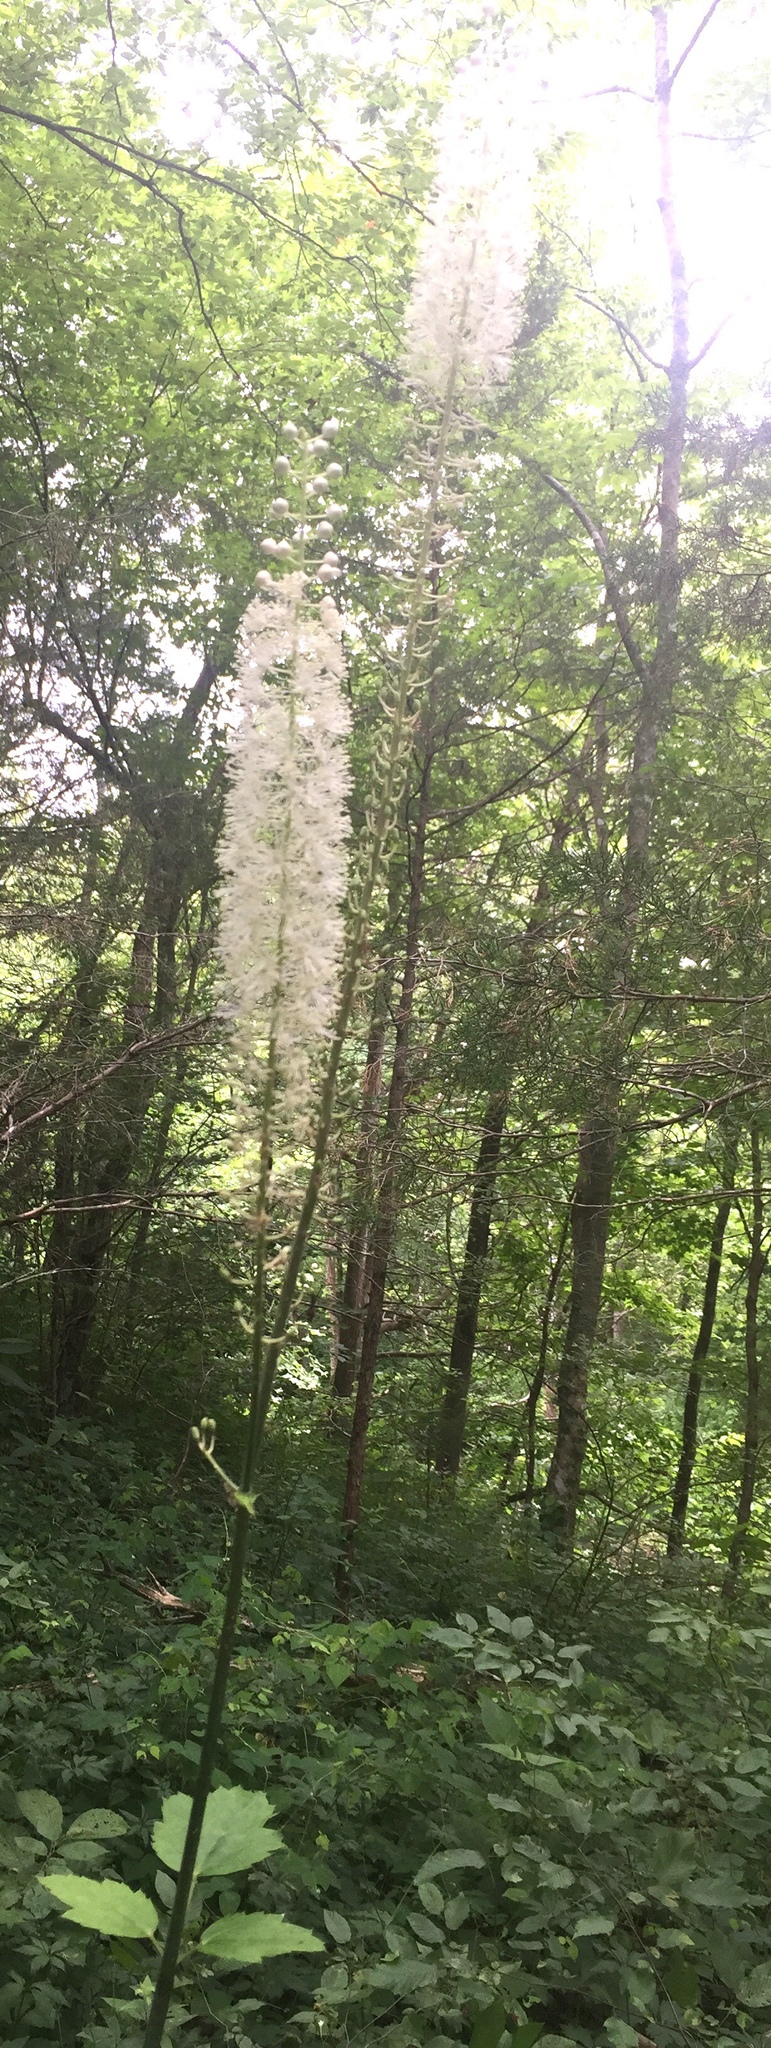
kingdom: Plantae
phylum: Tracheophyta
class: Magnoliopsida
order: Ranunculales
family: Ranunculaceae
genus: Actaea
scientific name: Actaea racemosa
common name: Black cohosh
